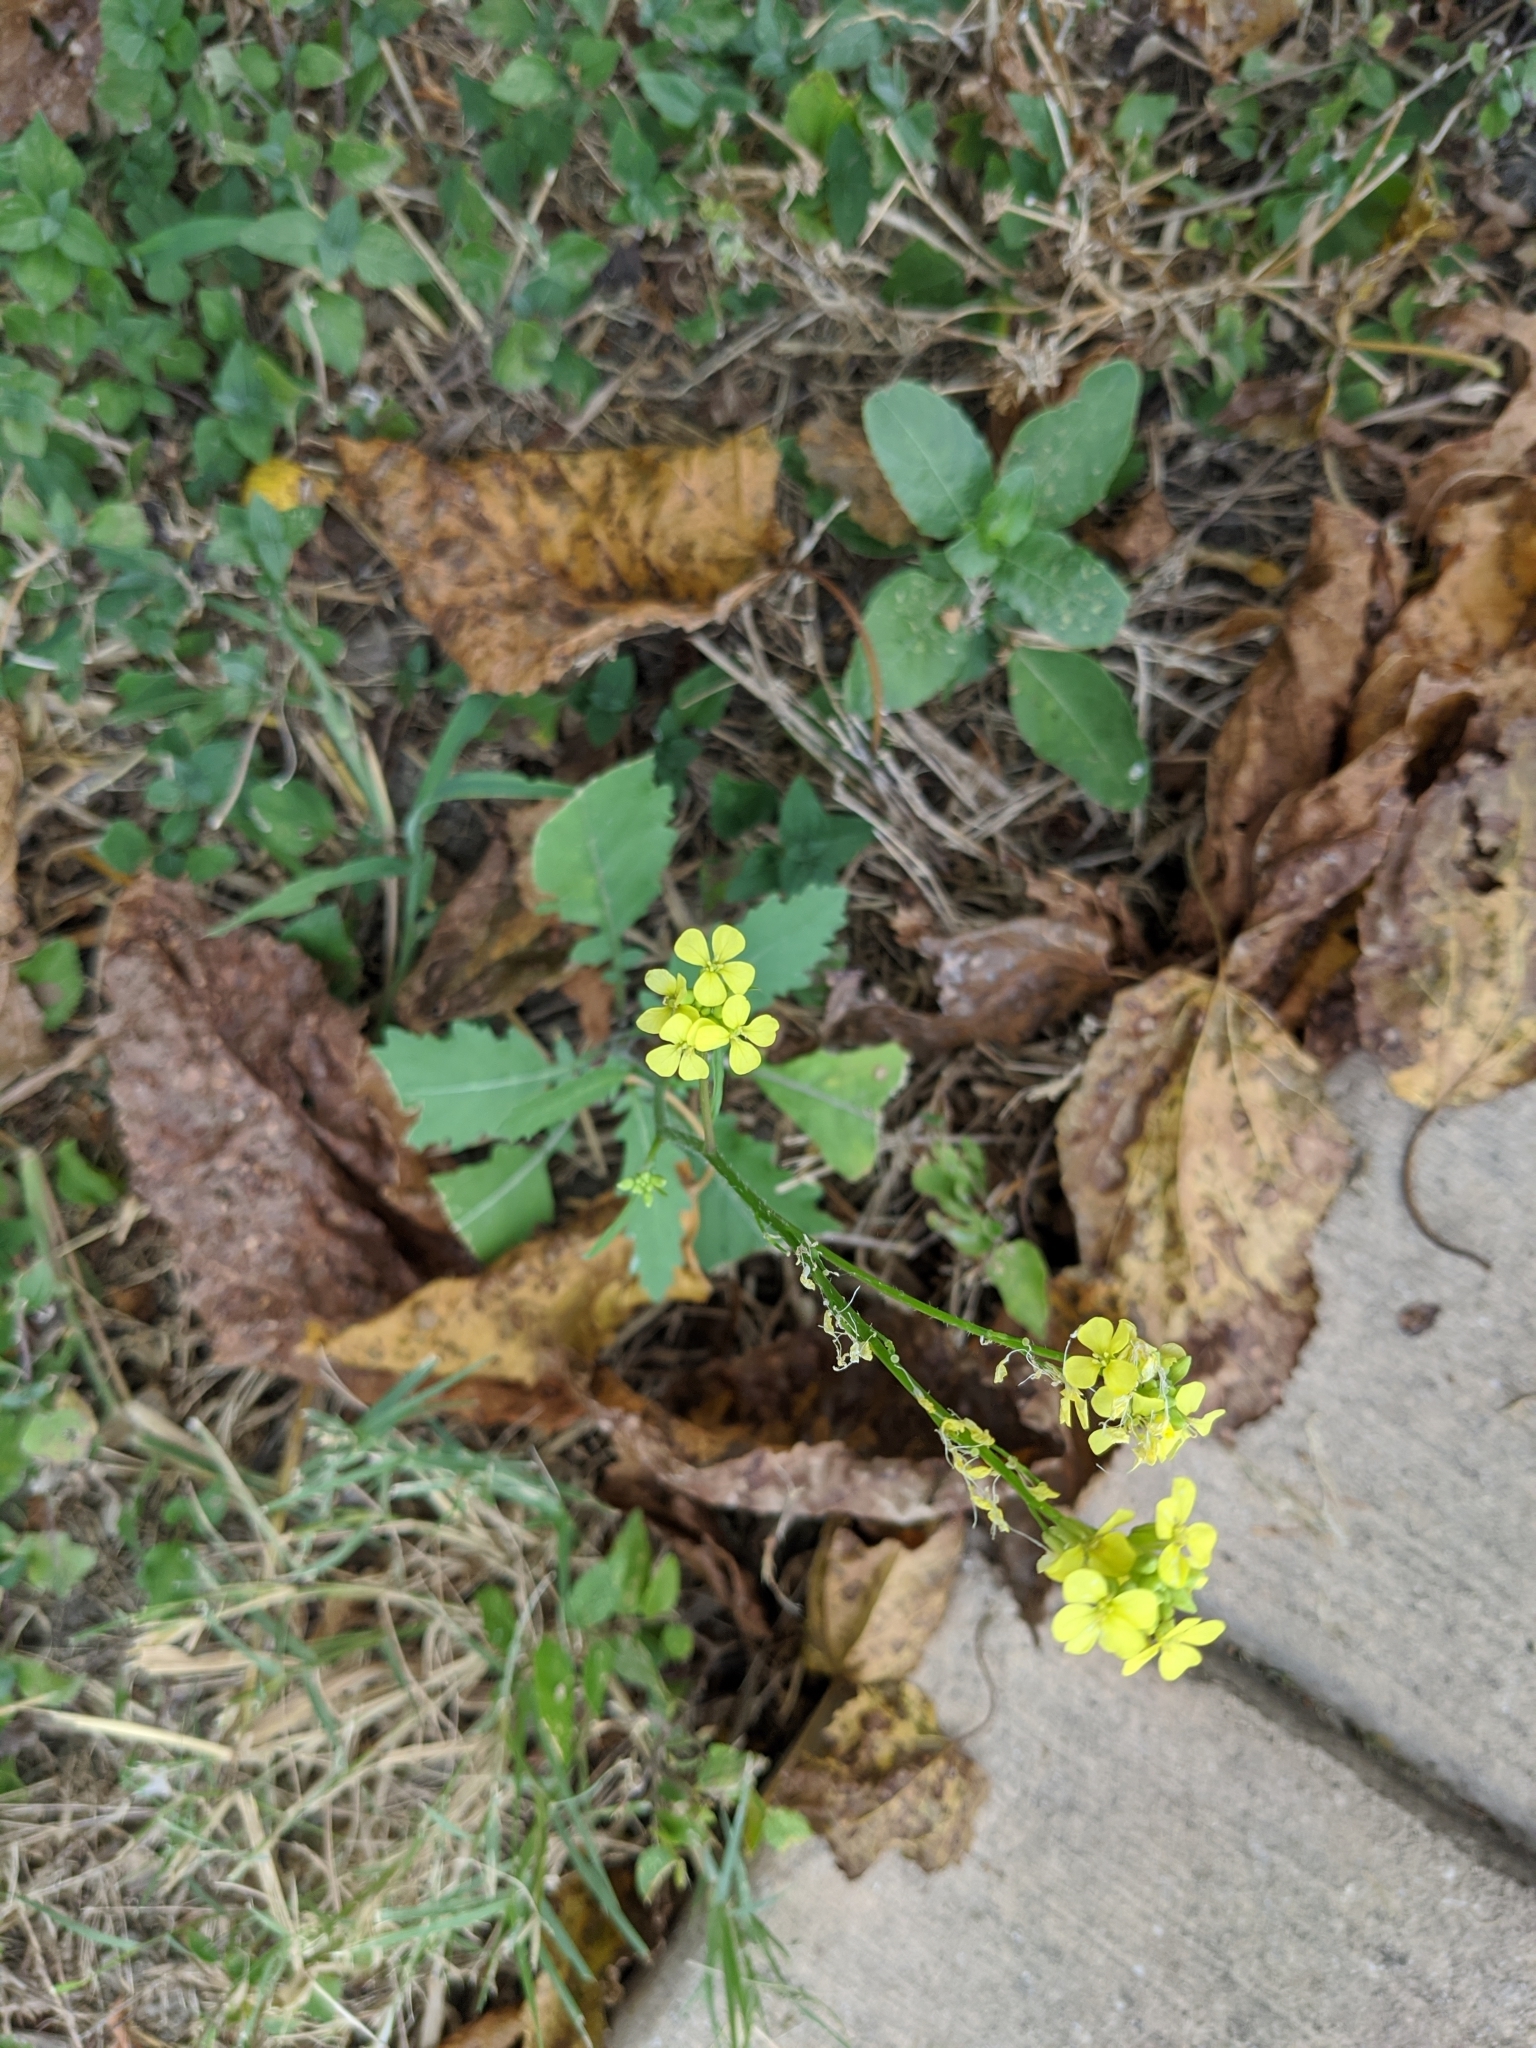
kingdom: Plantae
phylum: Tracheophyta
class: Magnoliopsida
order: Brassicales
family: Brassicaceae
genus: Rapistrum
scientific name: Rapistrum rugosum
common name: Annual bastardcabbage
